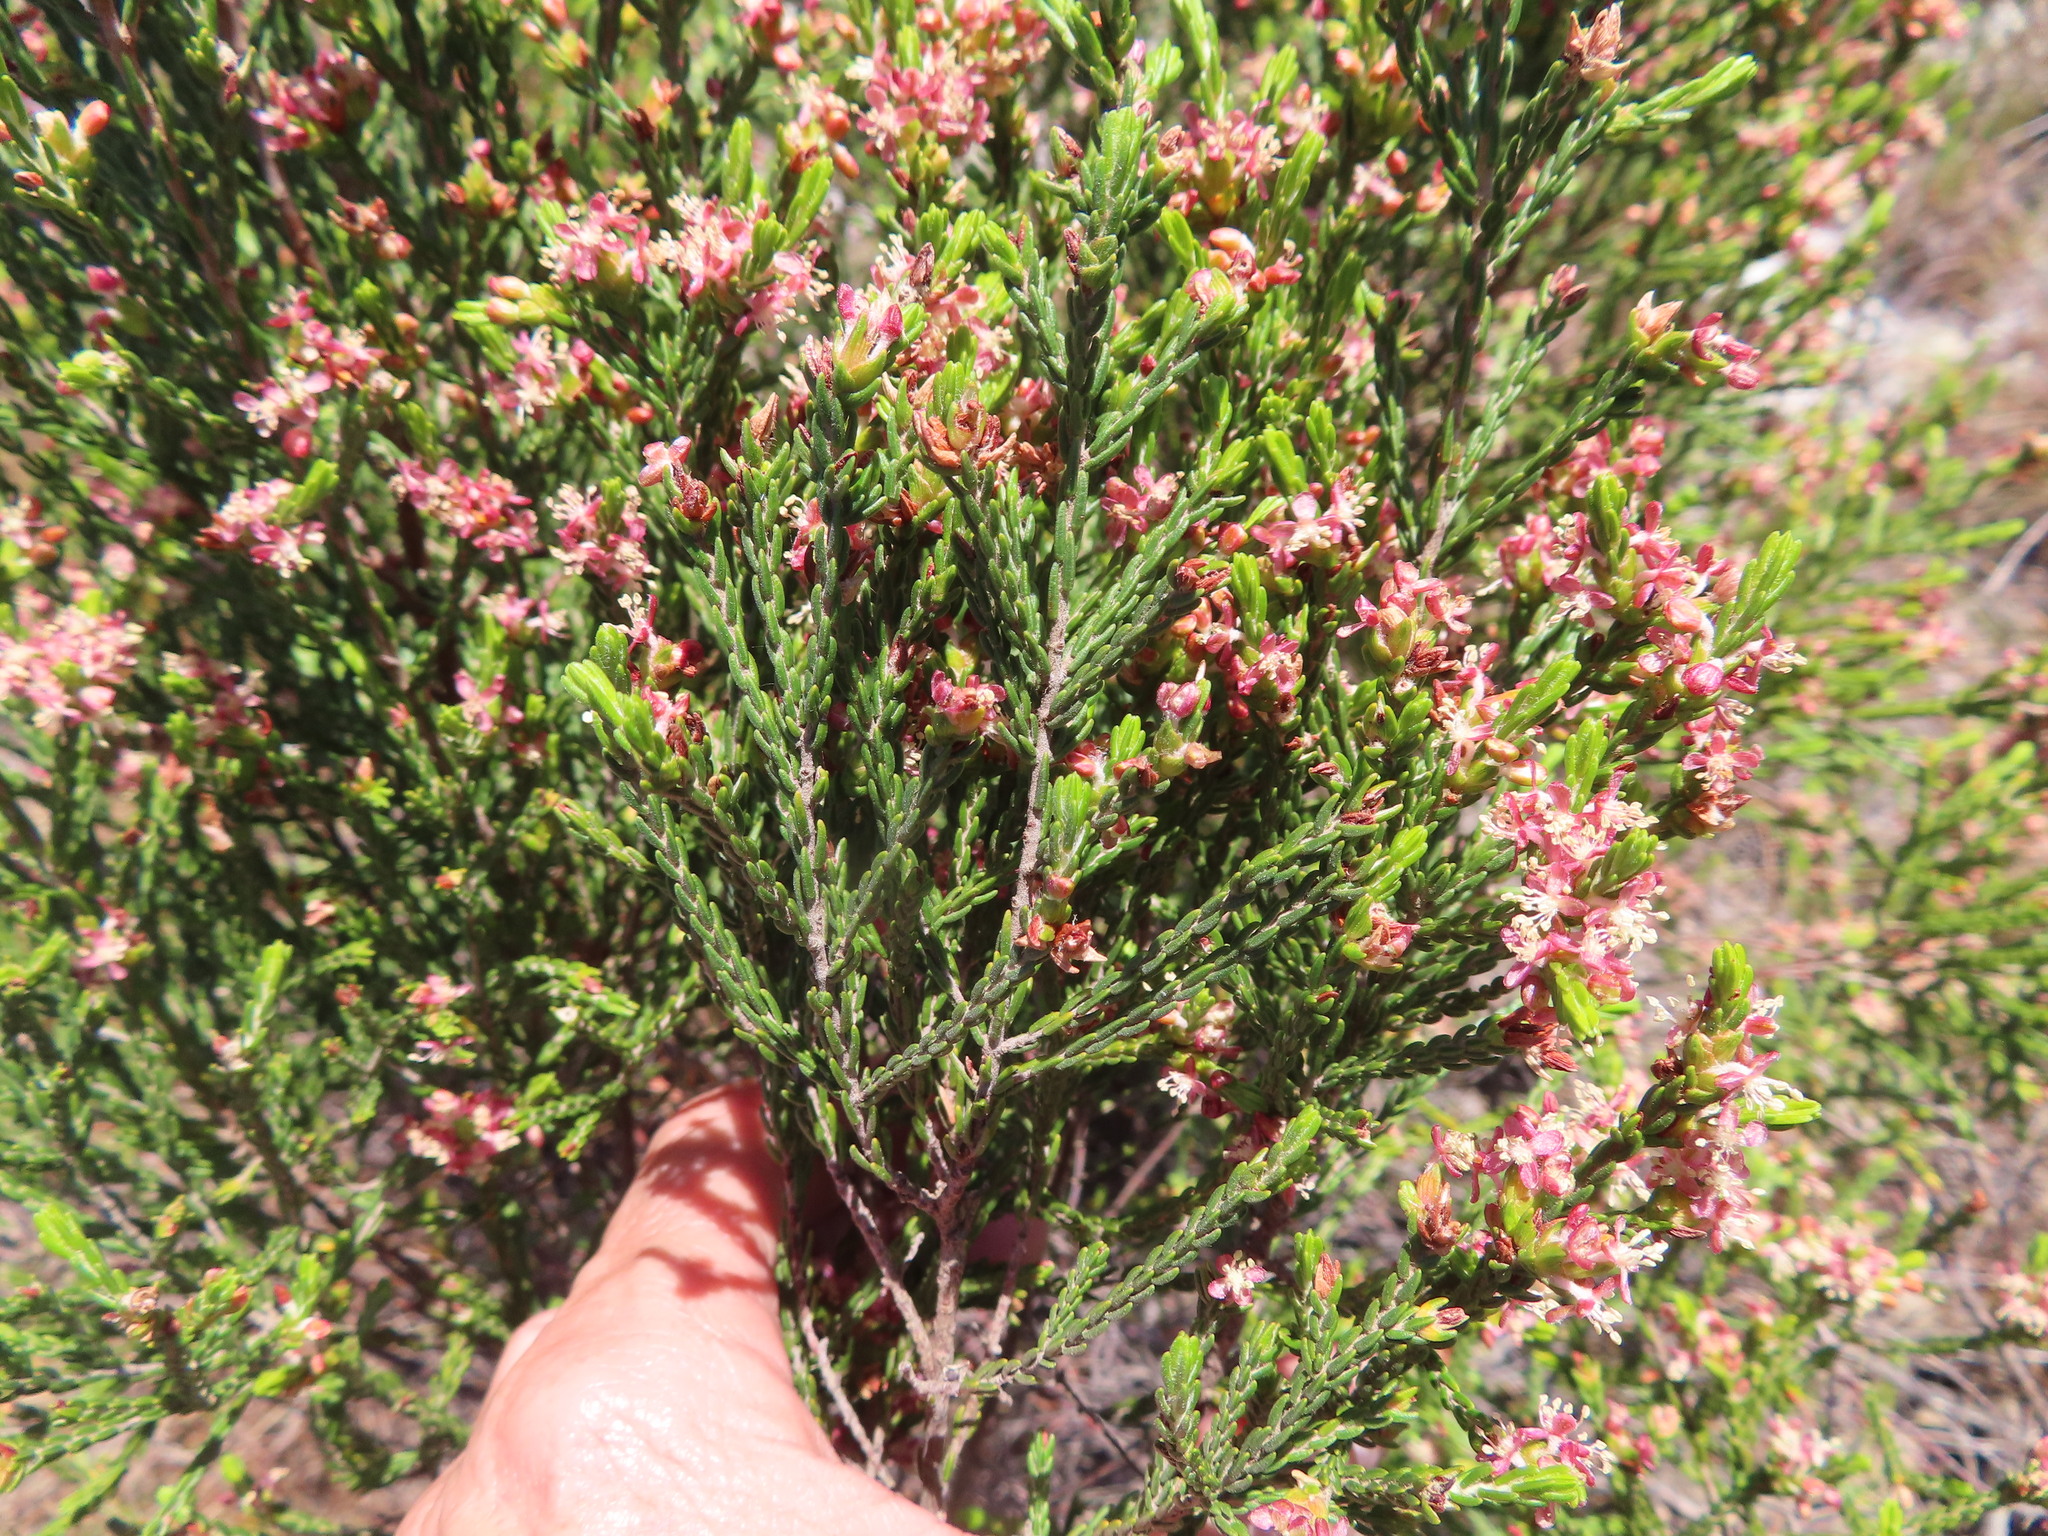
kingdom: Plantae
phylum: Tracheophyta
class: Magnoliopsida
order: Malvales
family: Thymelaeaceae
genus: Passerina
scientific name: Passerina corymbosa
